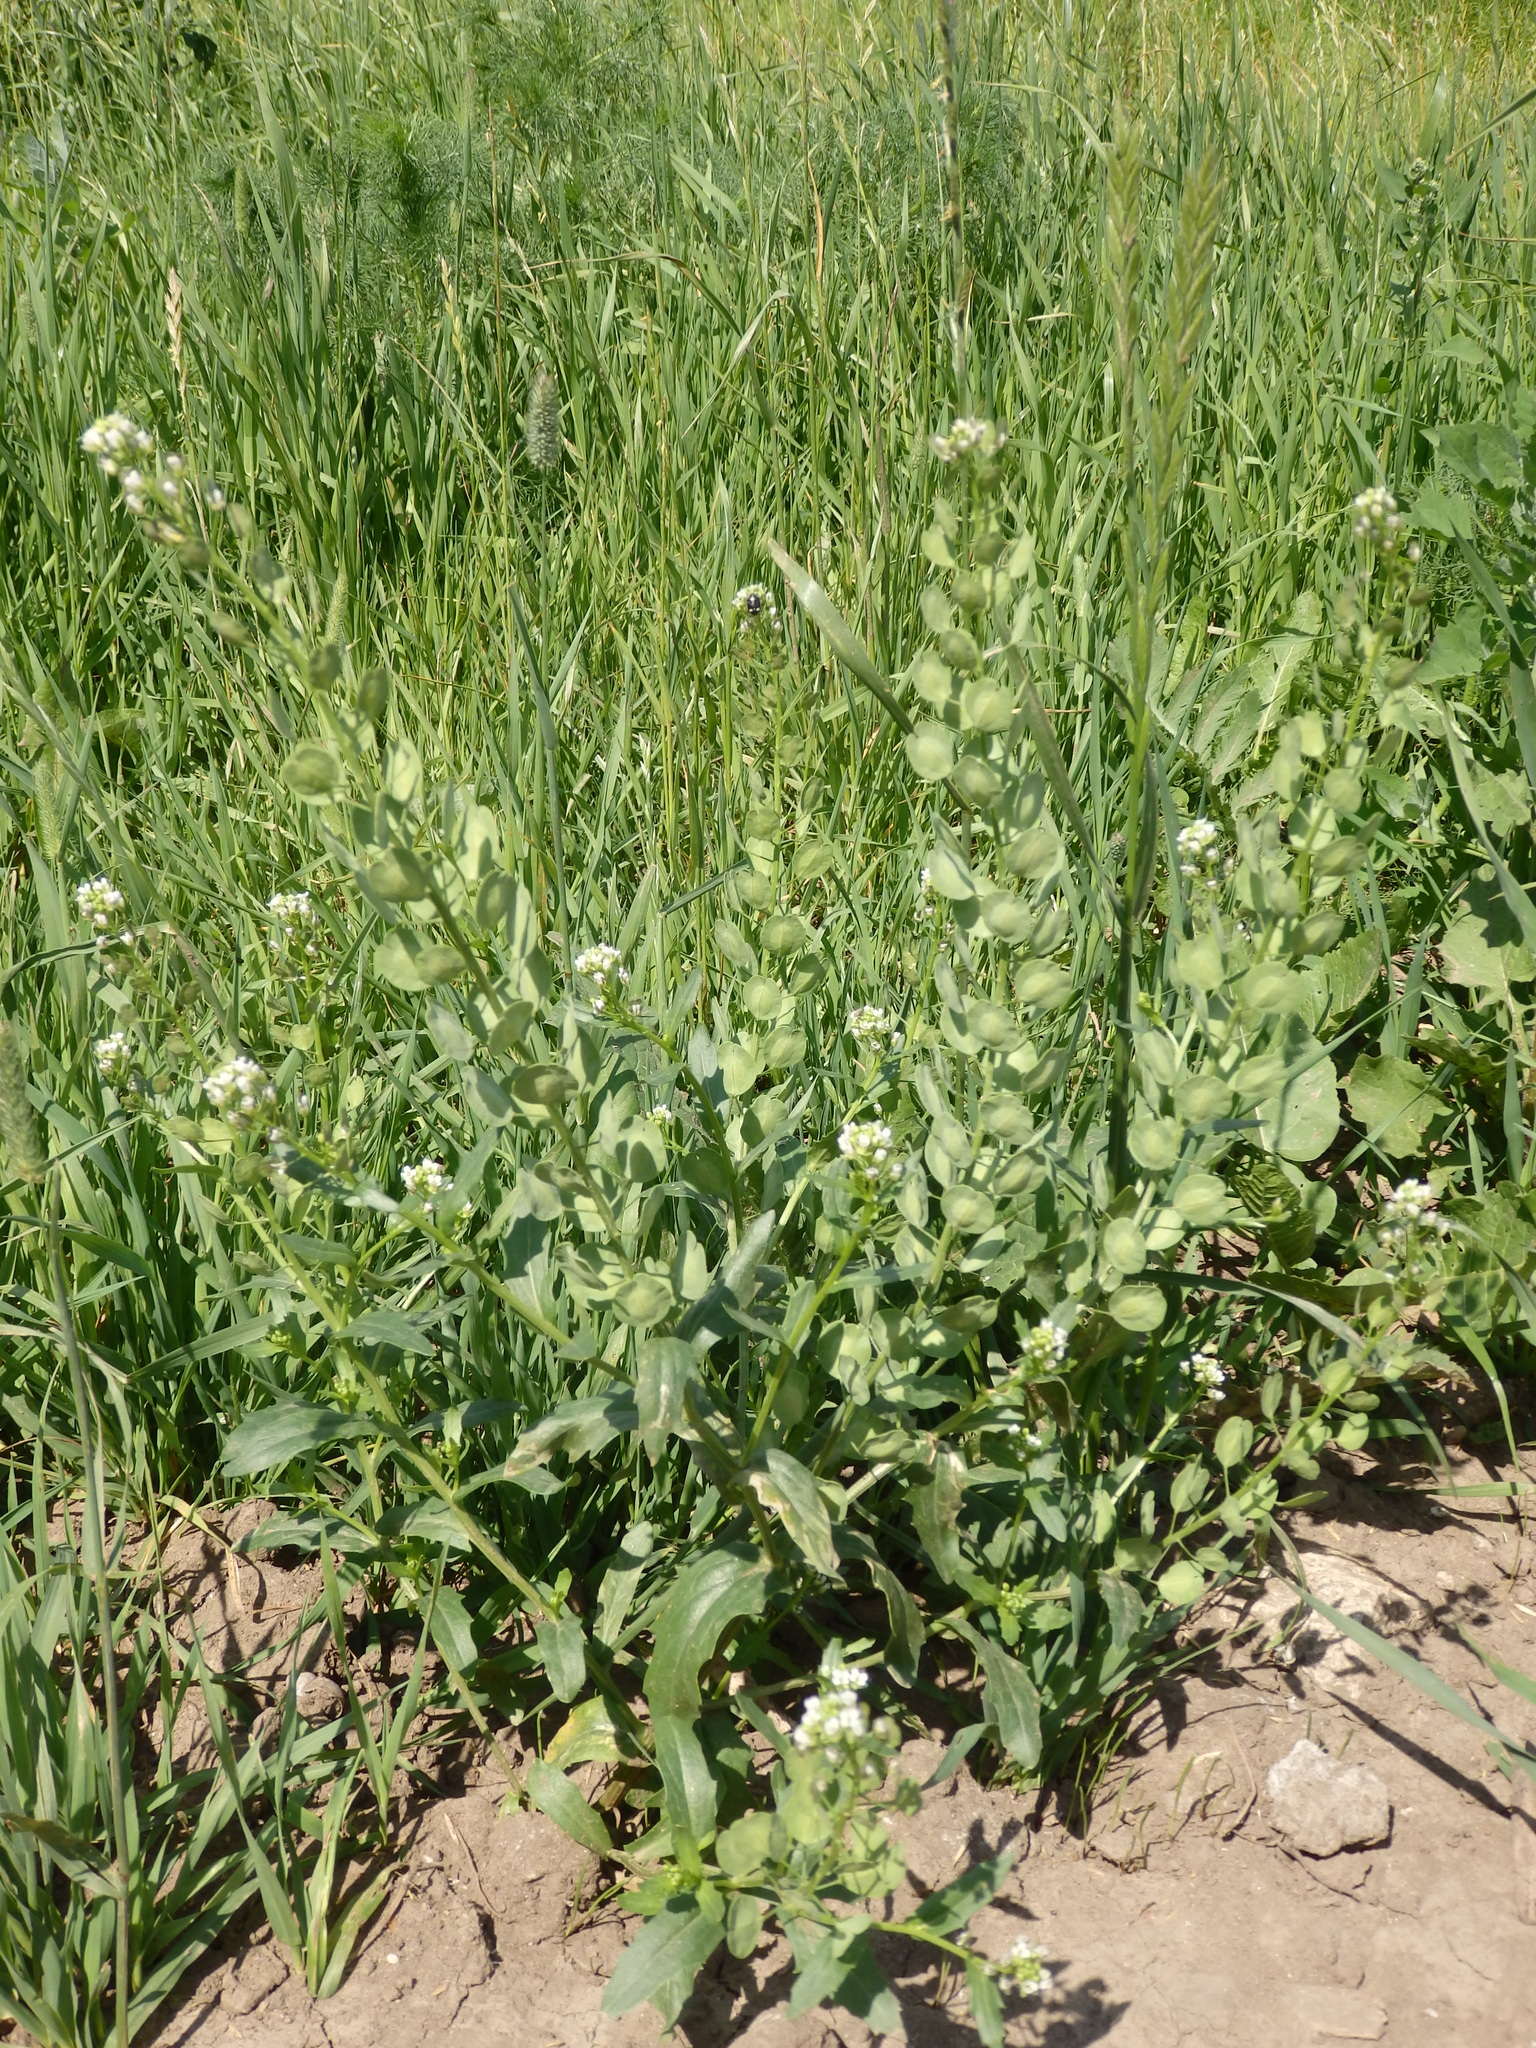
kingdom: Plantae
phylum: Tracheophyta
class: Magnoliopsida
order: Brassicales
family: Brassicaceae
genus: Thlaspi
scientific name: Thlaspi arvense
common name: Field pennycress
